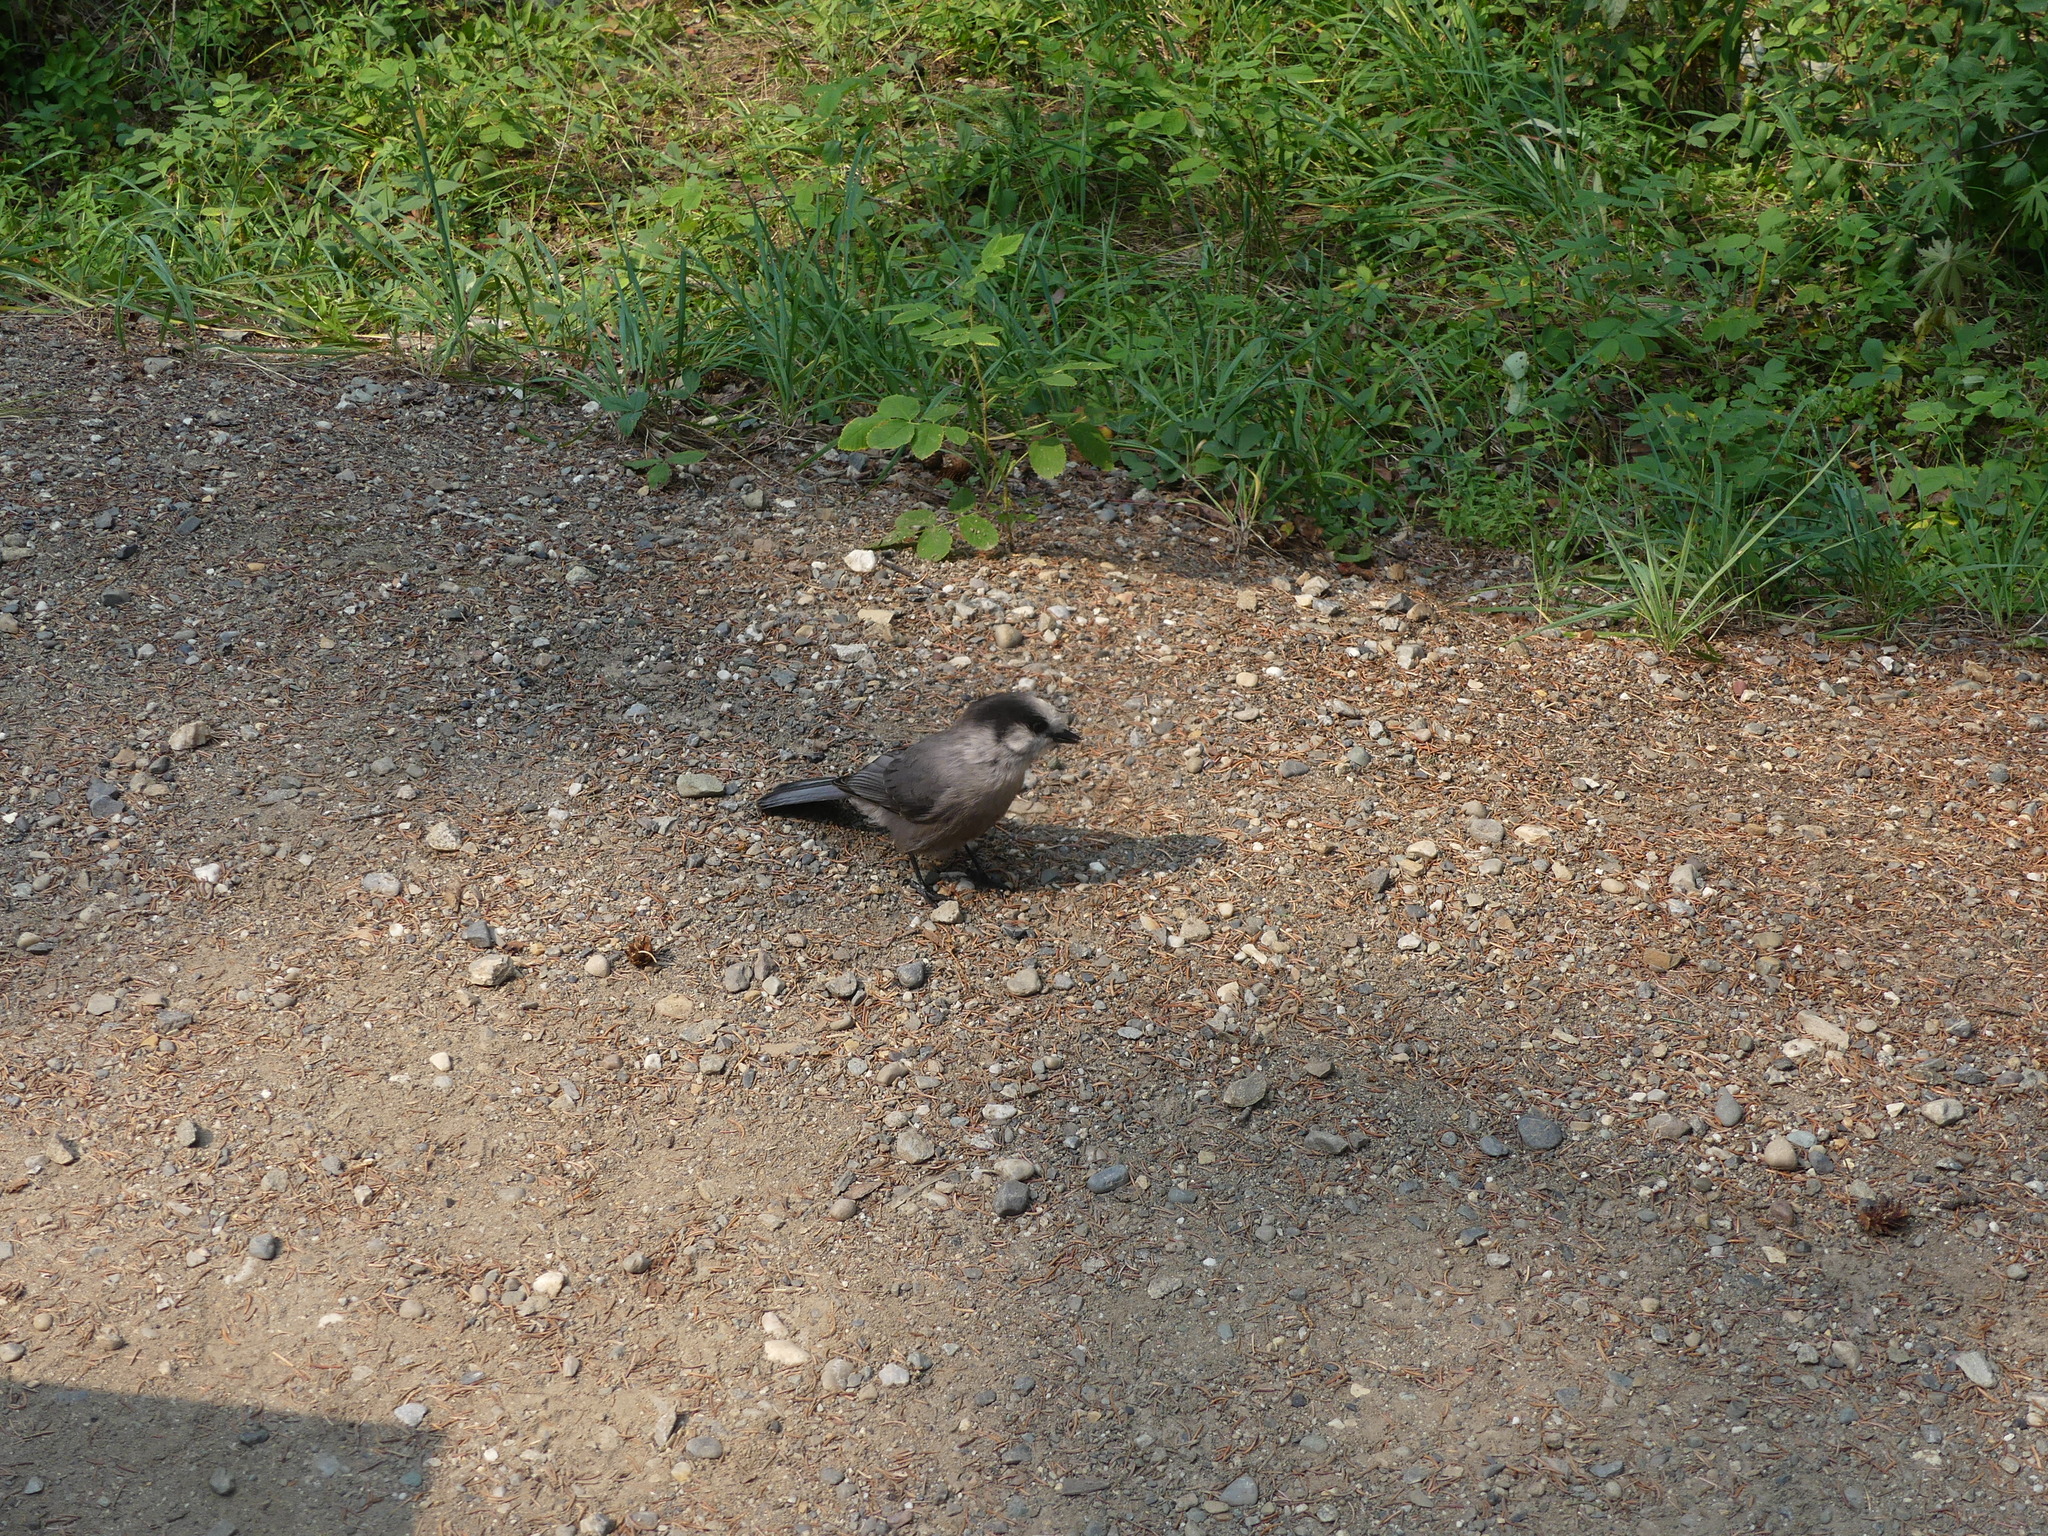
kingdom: Animalia
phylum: Chordata
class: Aves
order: Passeriformes
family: Corvidae
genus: Perisoreus
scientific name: Perisoreus canadensis
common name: Gray jay
